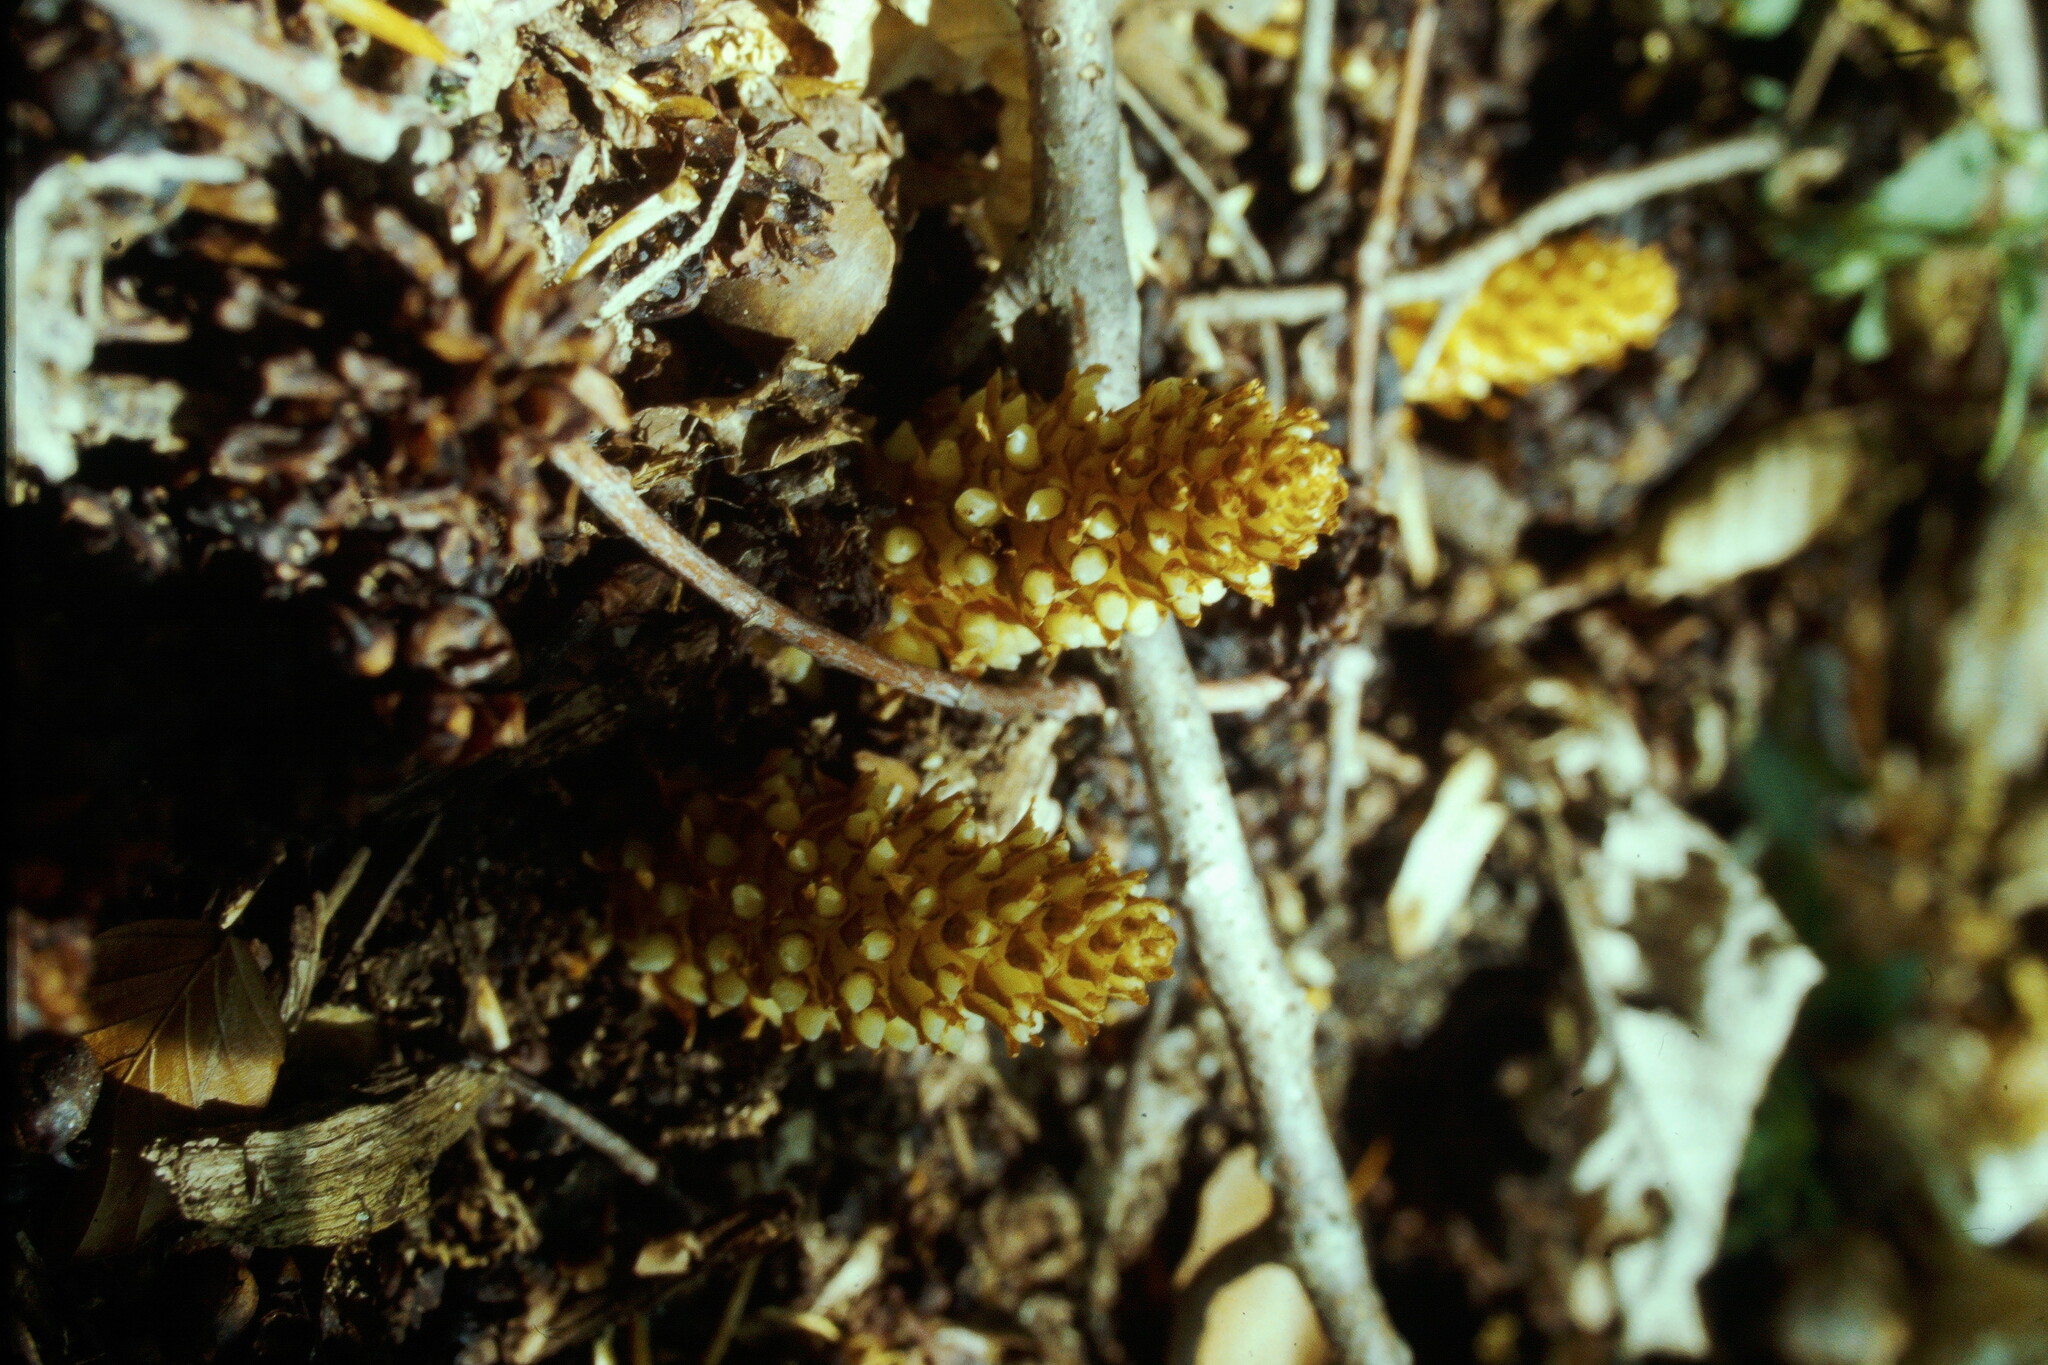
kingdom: Plantae
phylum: Tracheophyta
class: Magnoliopsida
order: Lamiales
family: Orobanchaceae
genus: Conopholis
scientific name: Conopholis americana
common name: American cancer-root
